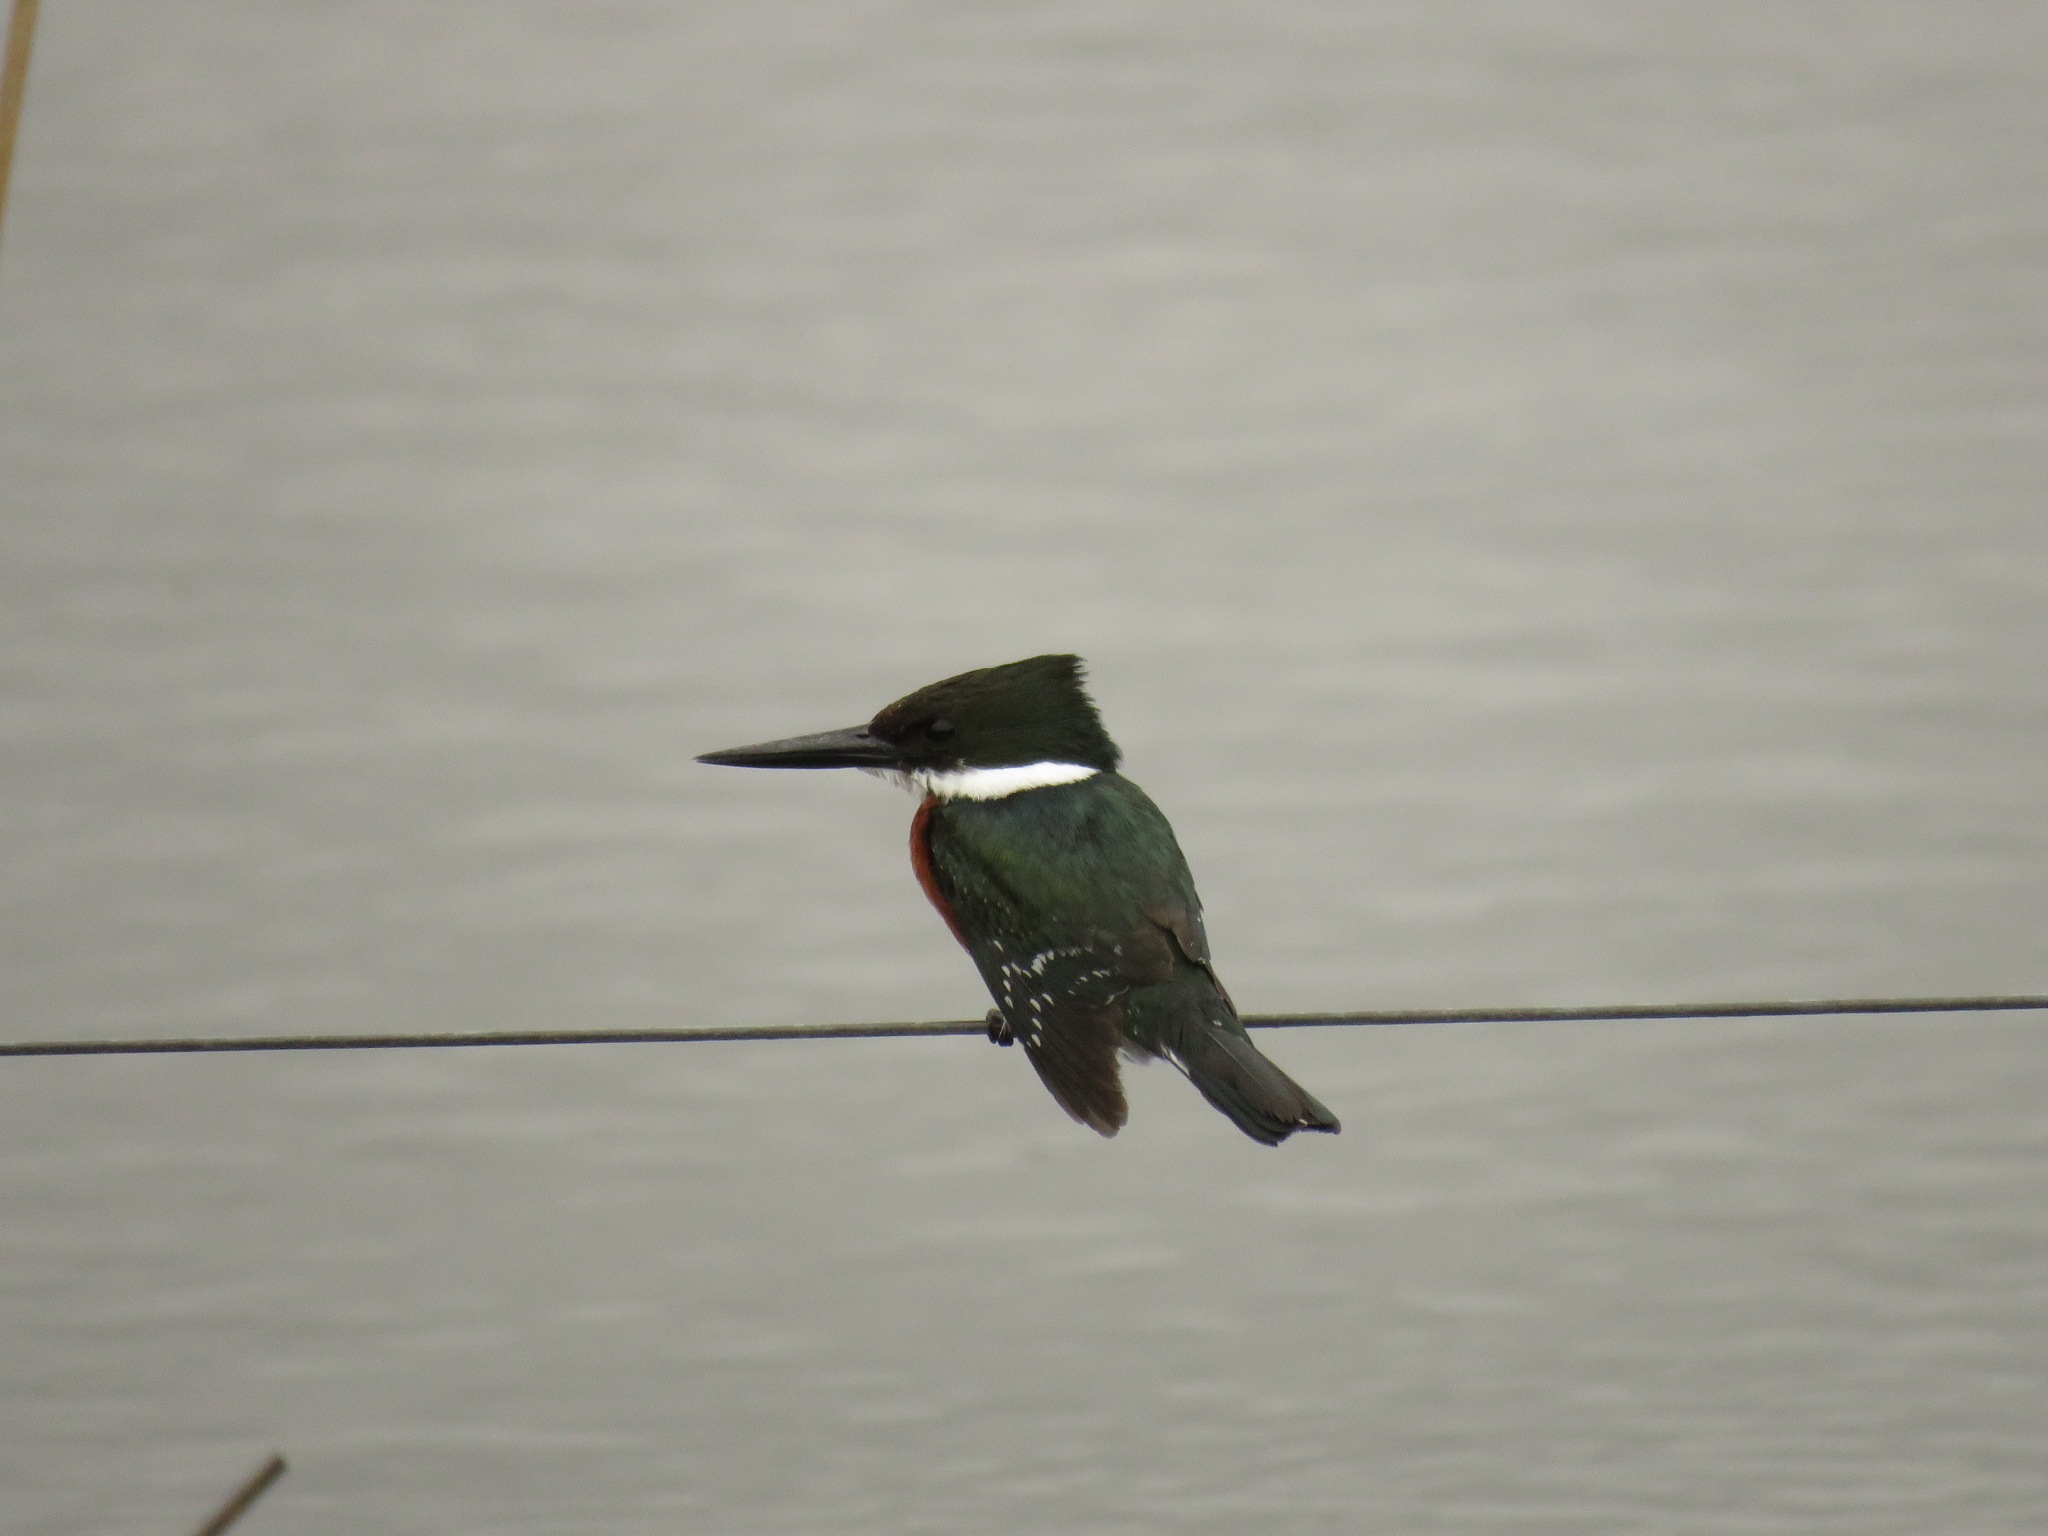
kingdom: Animalia
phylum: Chordata
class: Aves
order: Coraciiformes
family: Alcedinidae
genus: Chloroceryle
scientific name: Chloroceryle americana
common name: Green kingfisher
